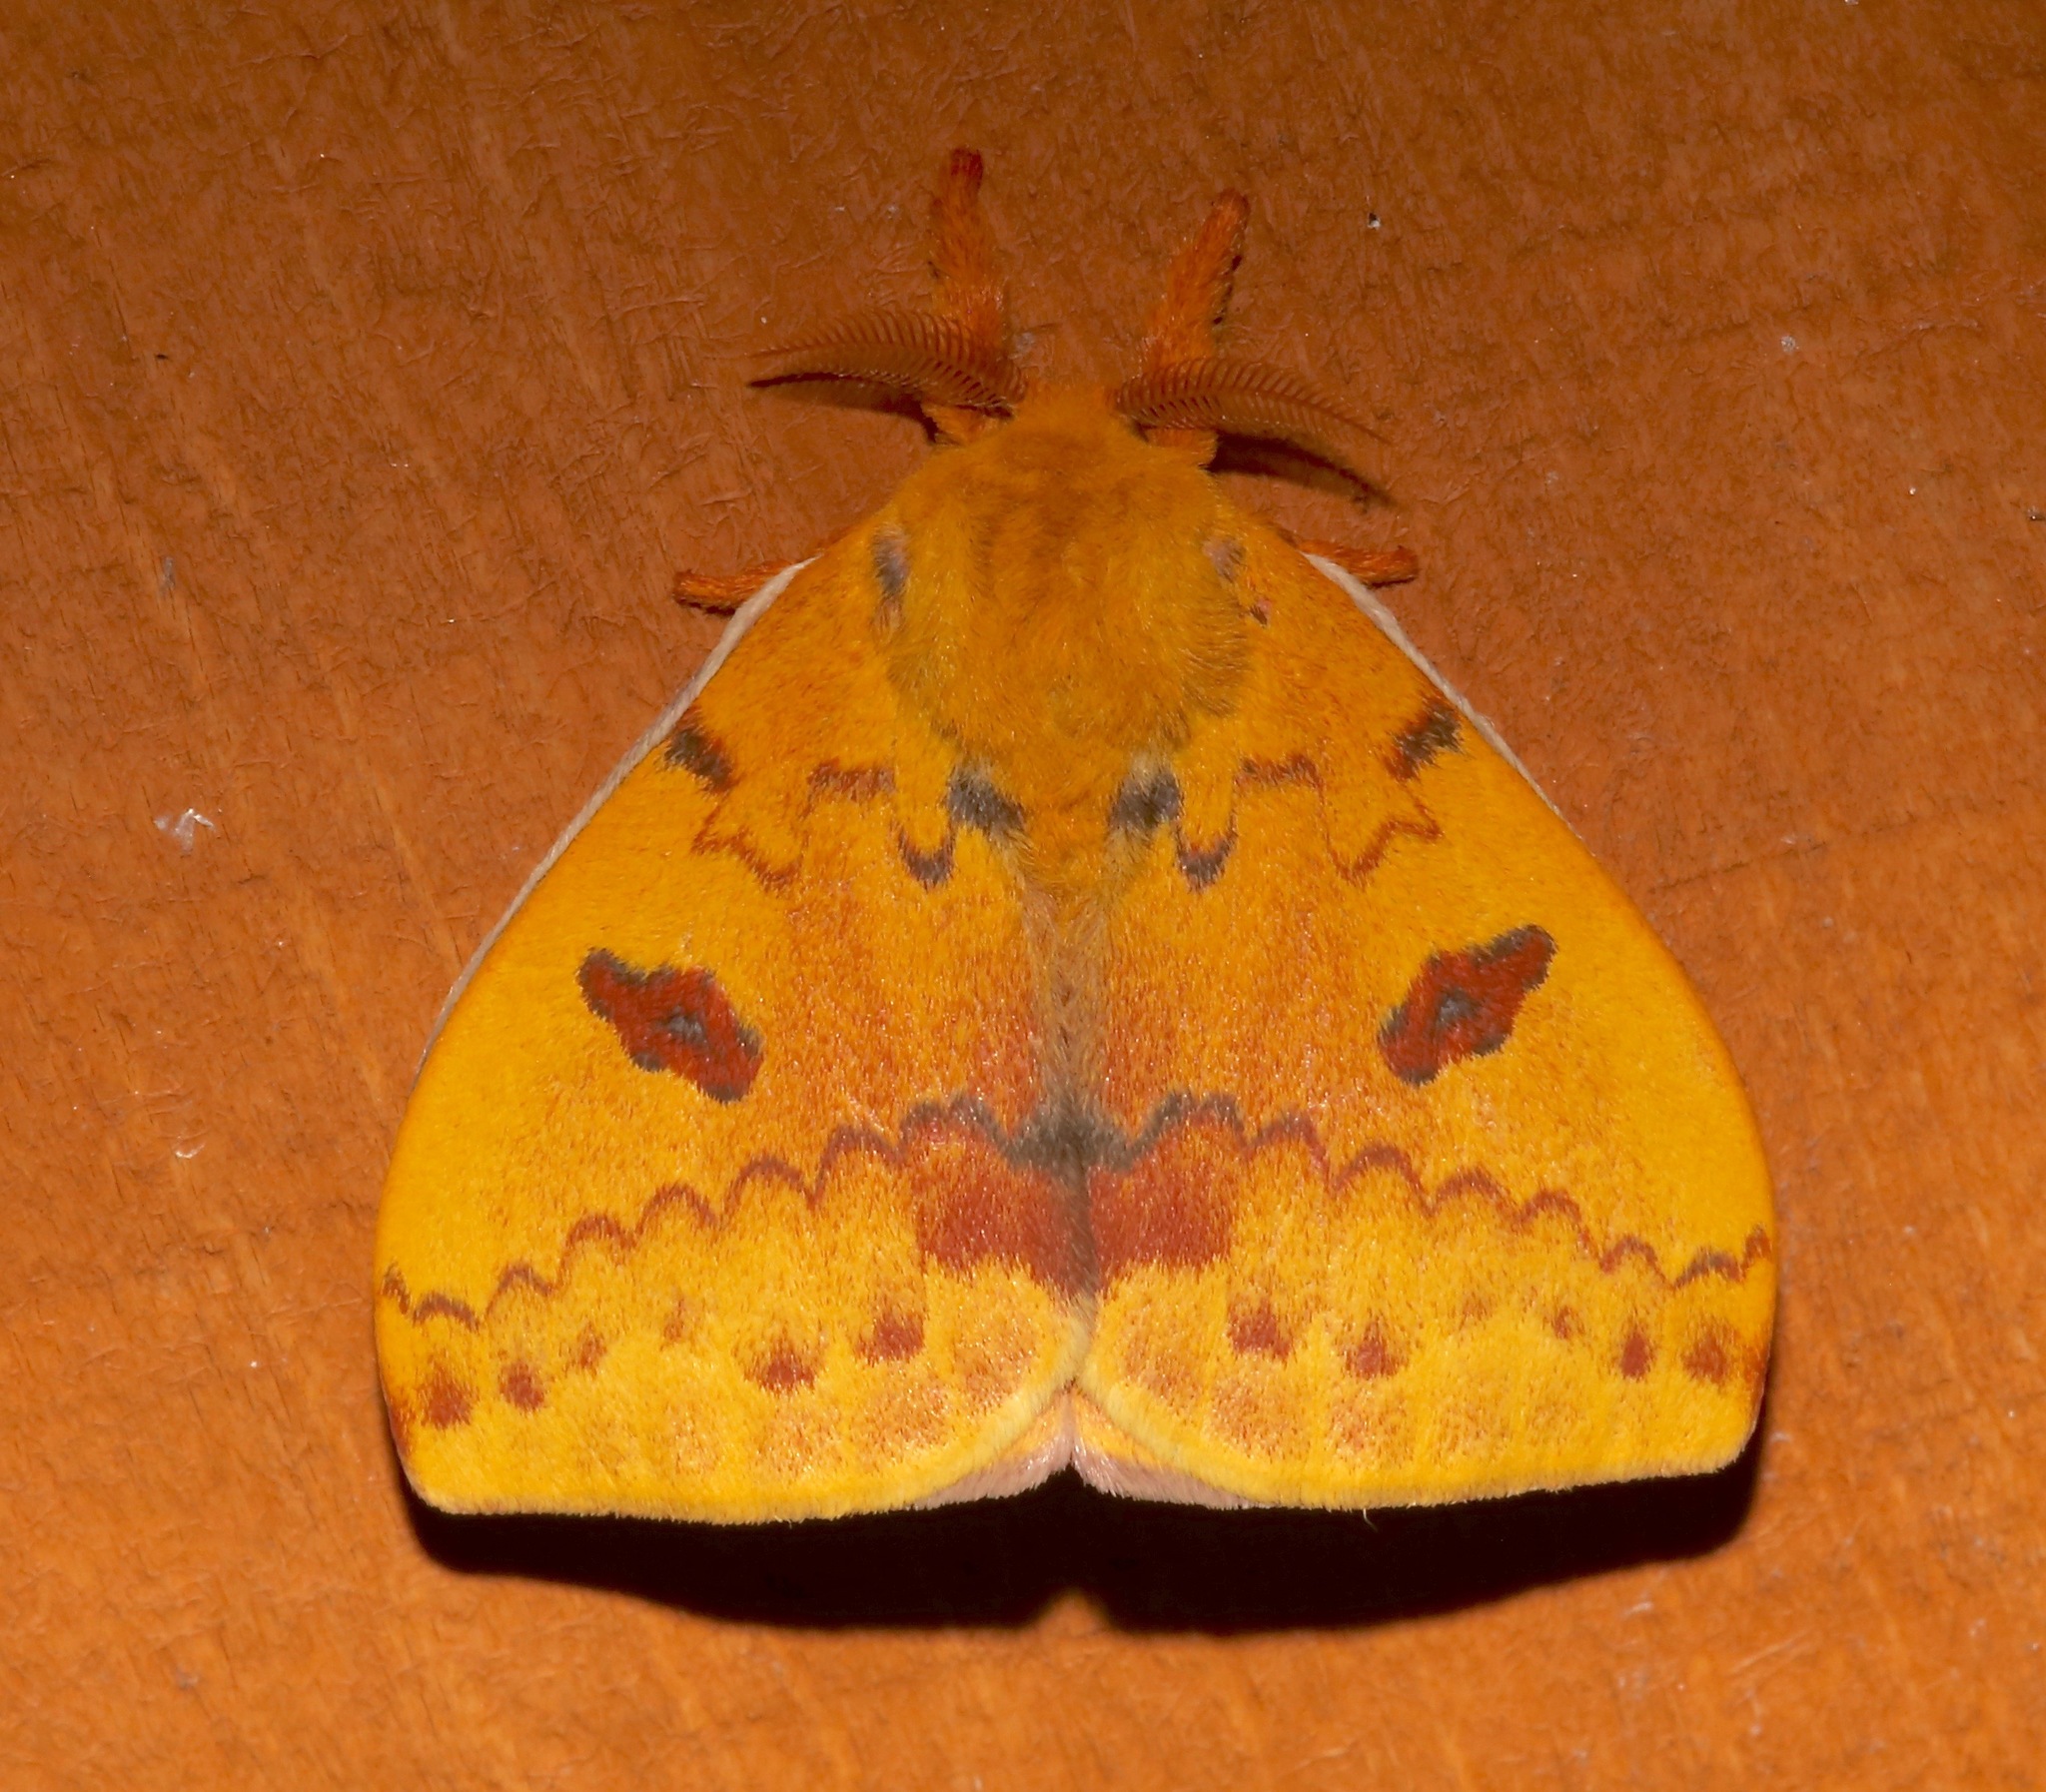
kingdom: Animalia
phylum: Arthropoda
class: Insecta
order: Lepidoptera
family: Saturniidae
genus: Automeris
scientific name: Automeris io
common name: Io moth
